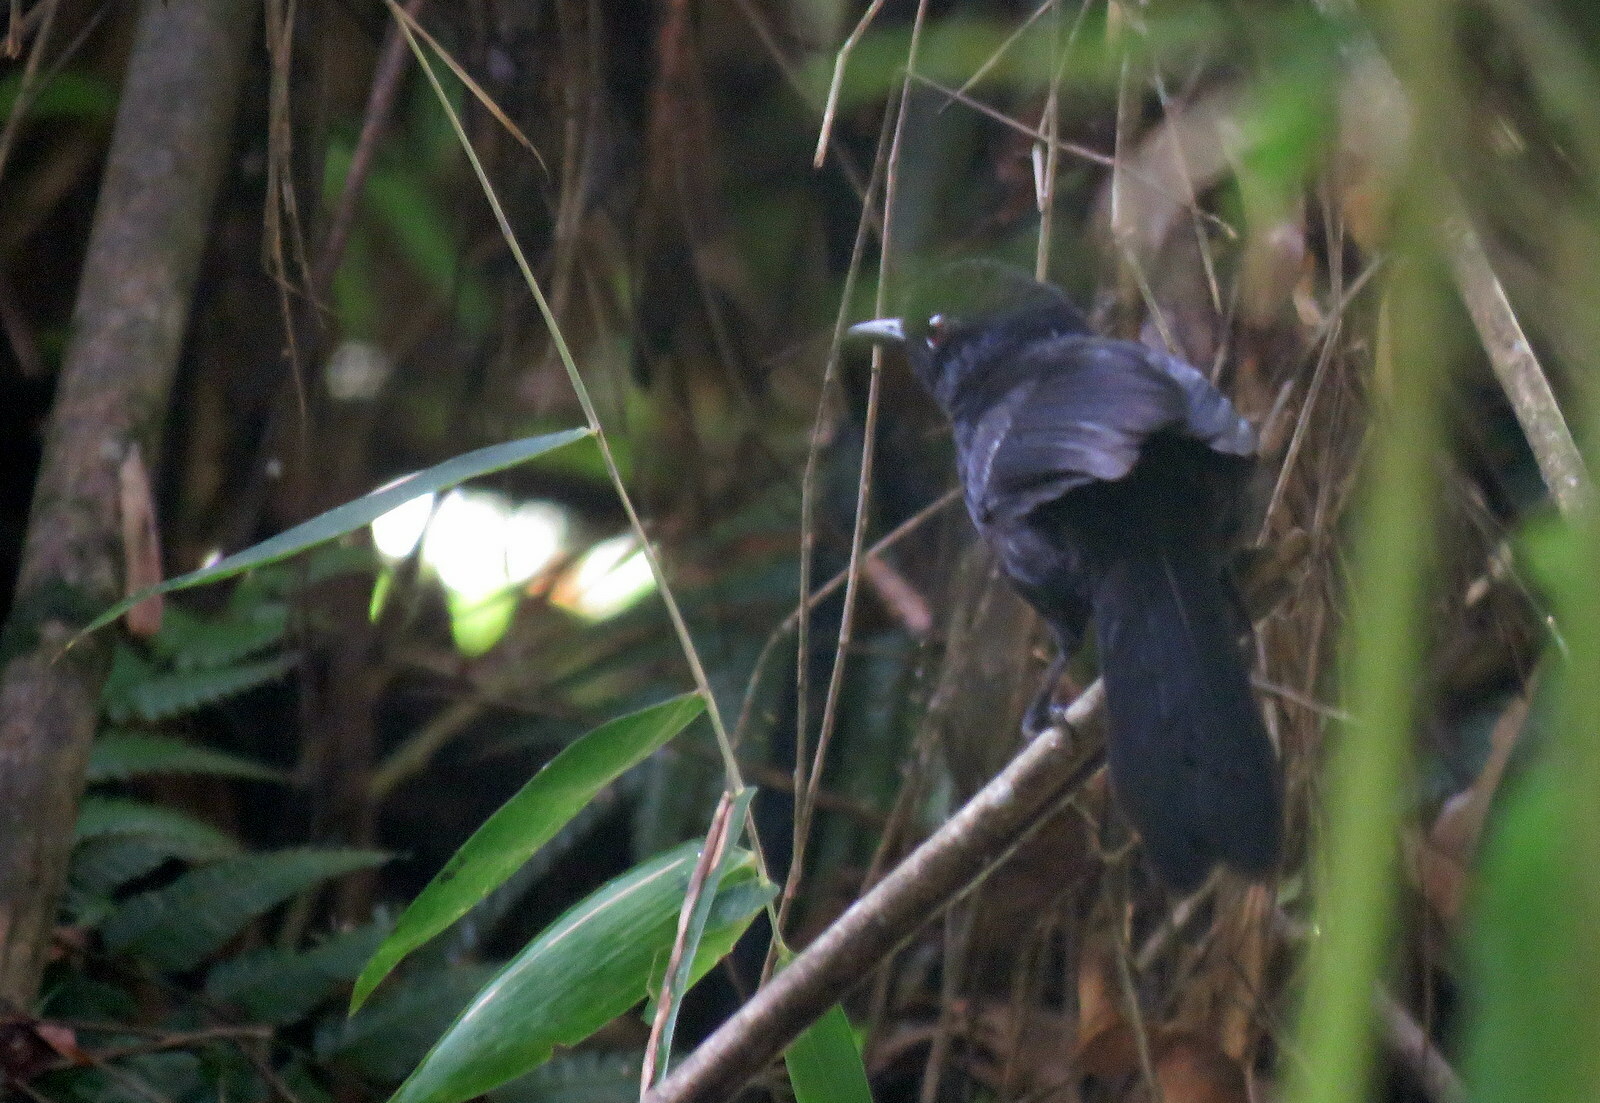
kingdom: Animalia
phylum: Chordata
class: Aves
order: Passeriformes
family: Thamnophilidae
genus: Pyriglena
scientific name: Pyriglena leucoptera
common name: White-shouldered fire-eye
